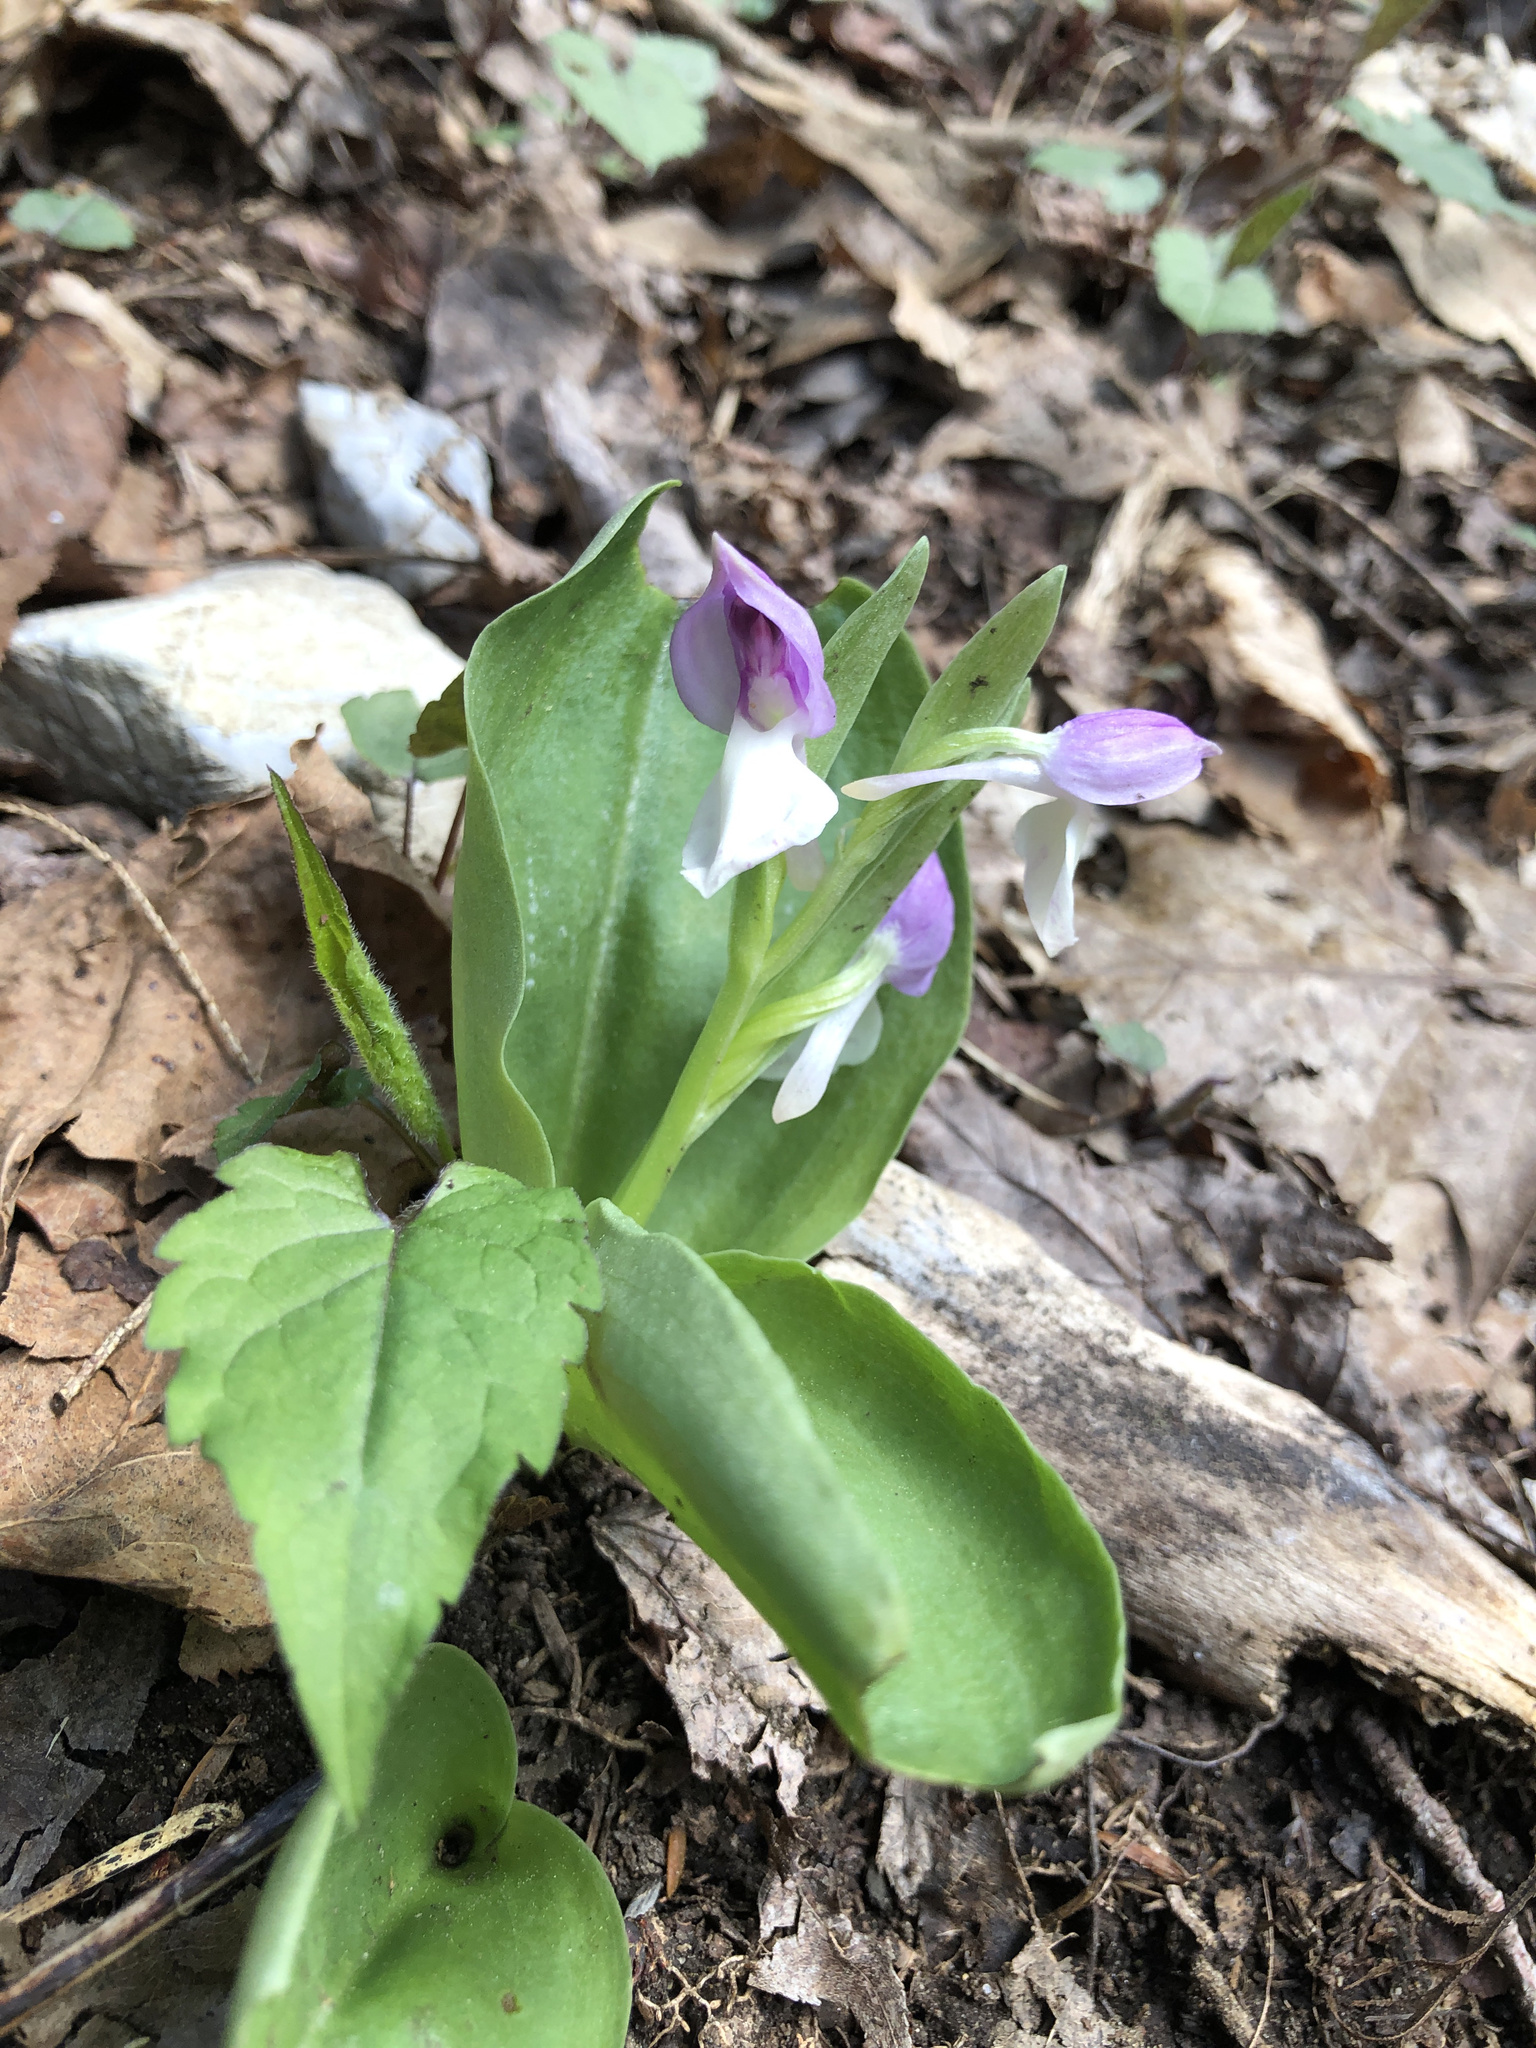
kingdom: Plantae
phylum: Tracheophyta
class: Liliopsida
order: Asparagales
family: Orchidaceae
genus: Galearis
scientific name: Galearis spectabilis
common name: Purple-hooded orchis
